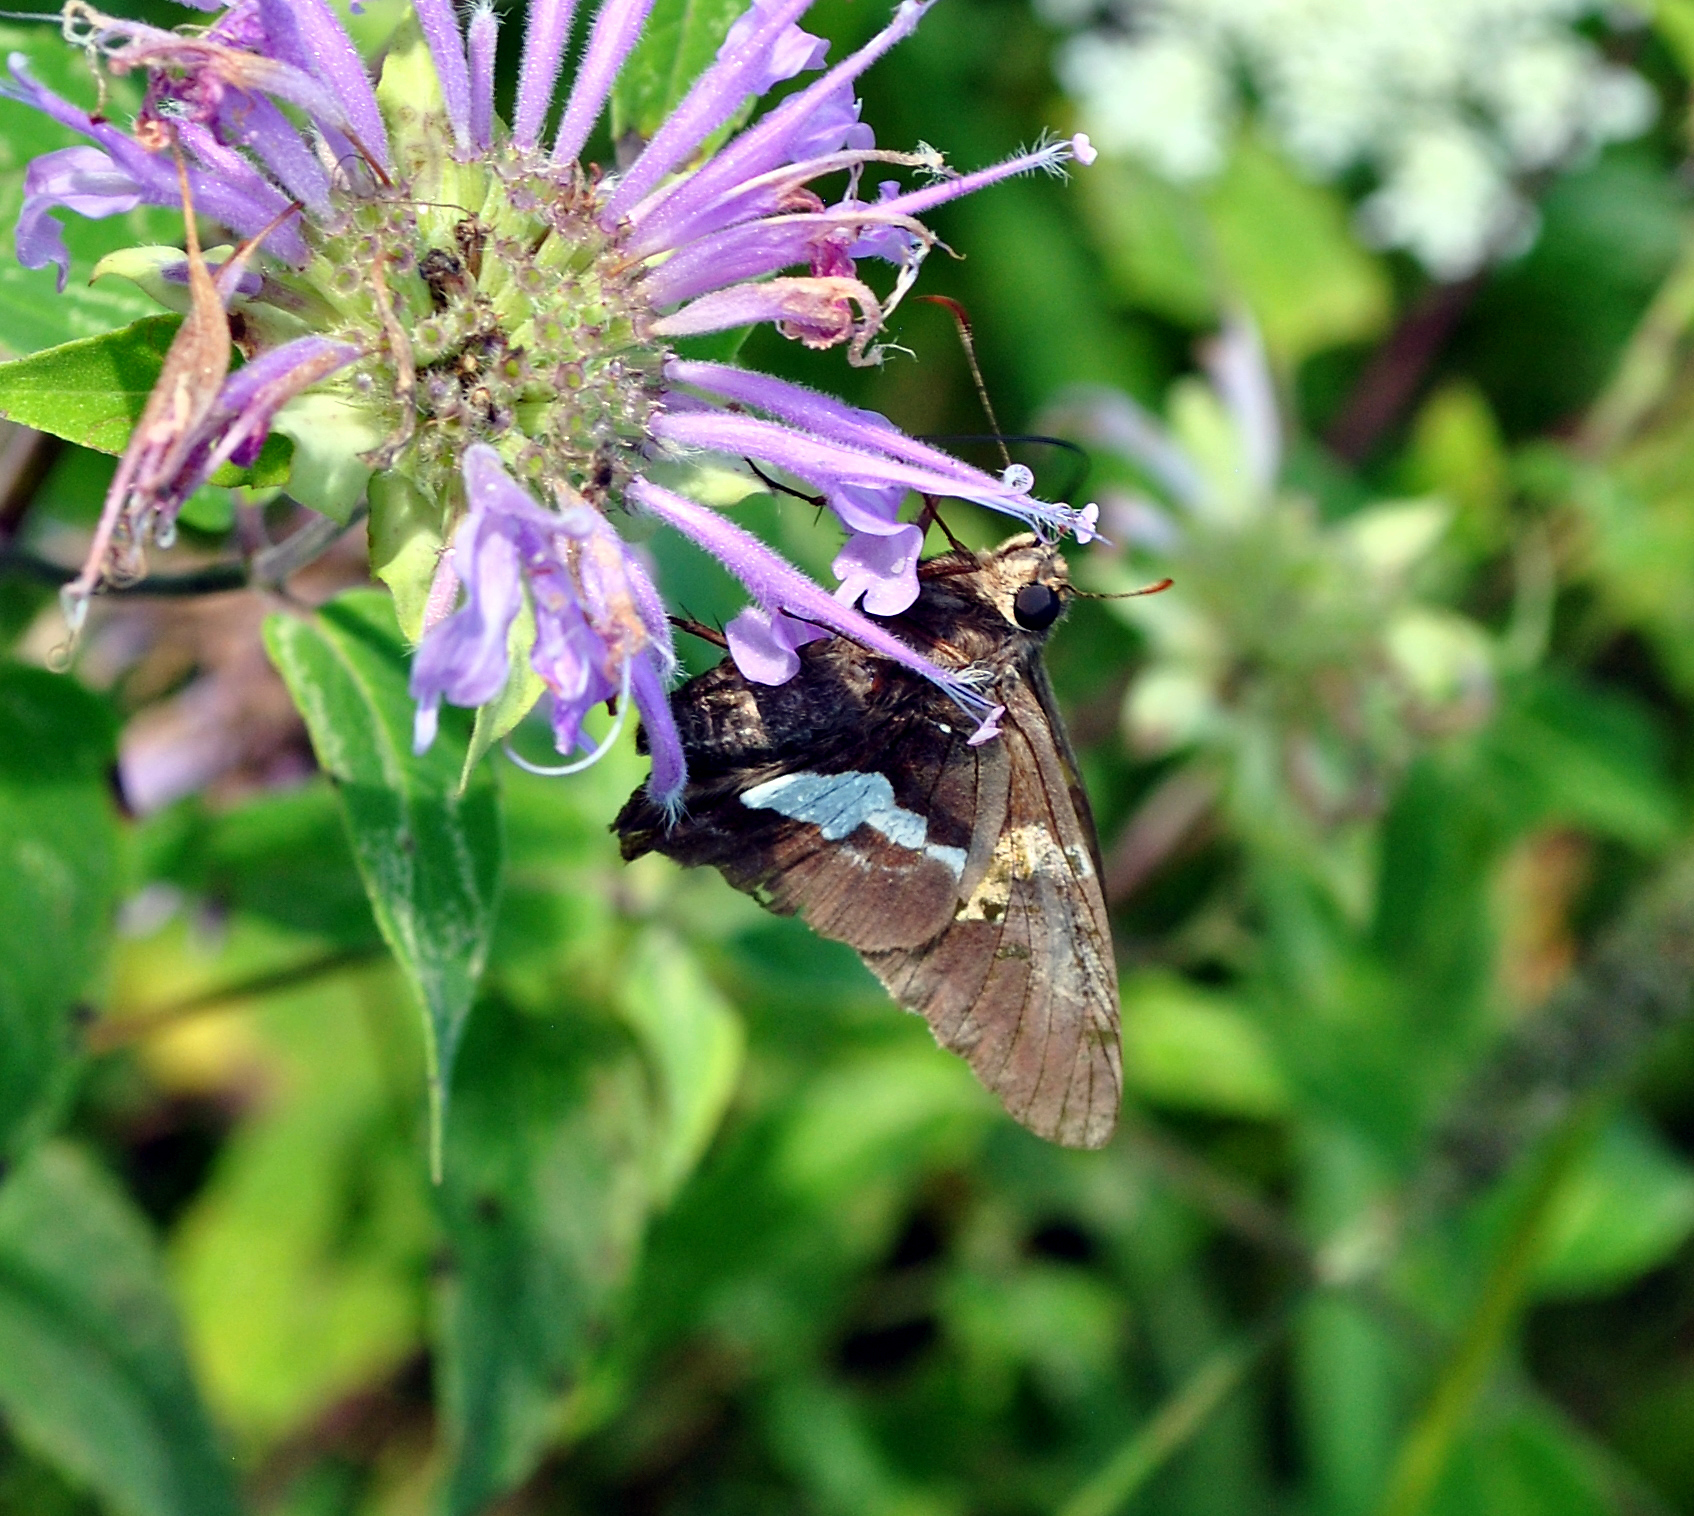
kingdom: Animalia
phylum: Arthropoda
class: Insecta
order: Lepidoptera
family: Hesperiidae
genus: Epargyreus
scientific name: Epargyreus clarus
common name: Silver-spotted skipper
